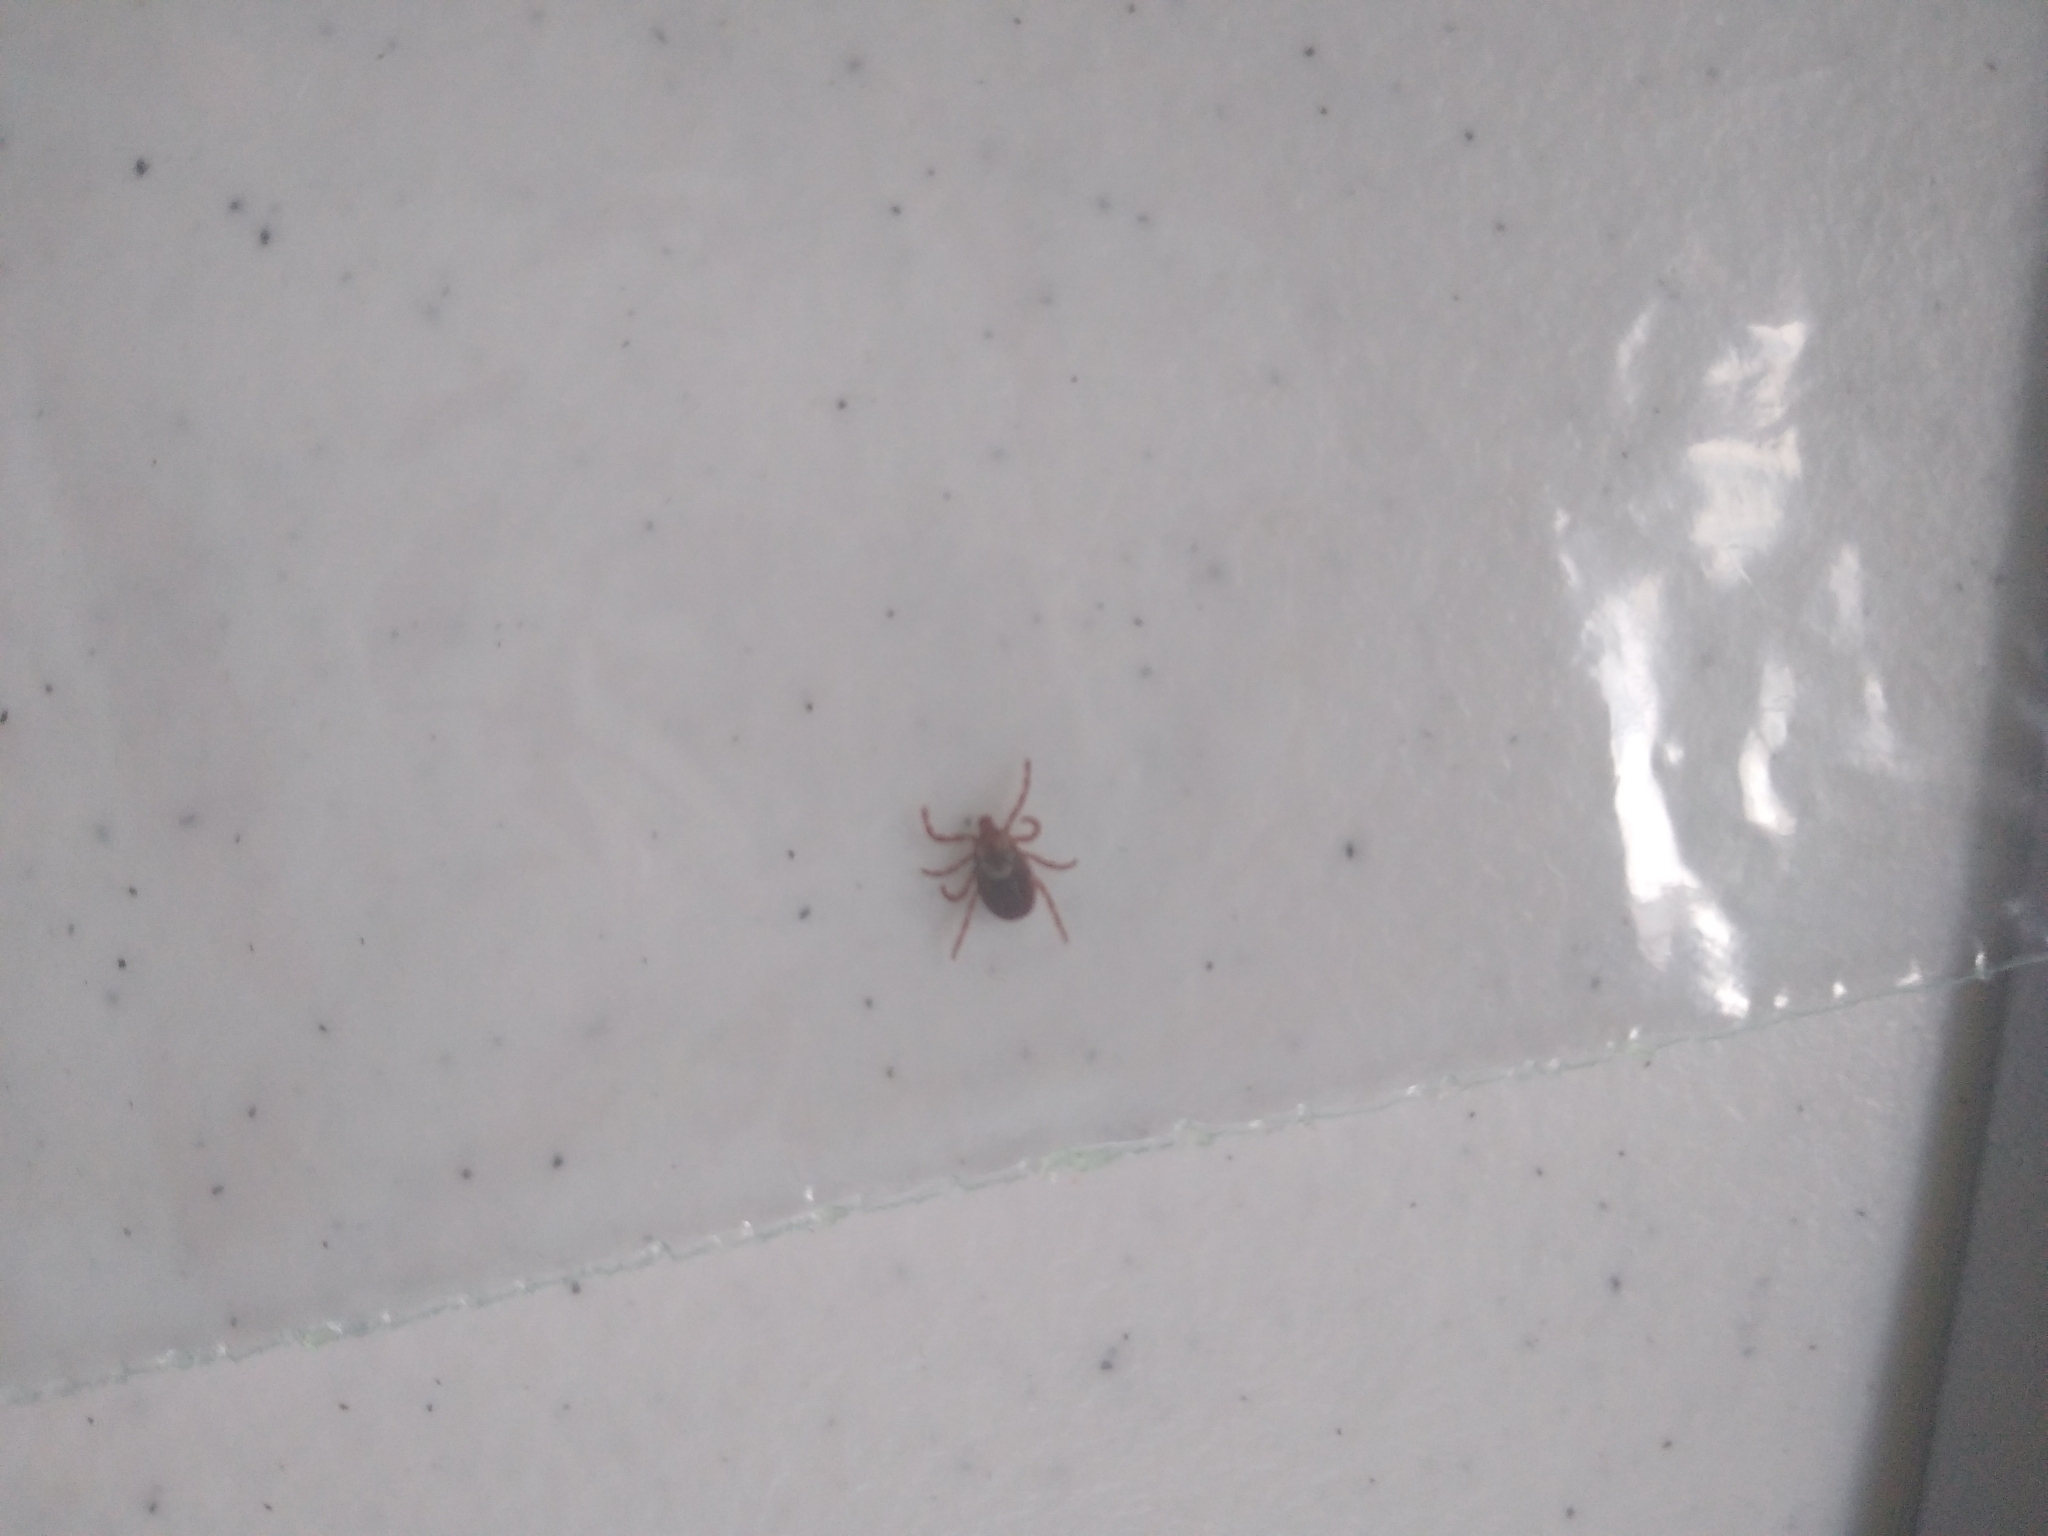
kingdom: Animalia
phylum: Arthropoda
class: Arachnida
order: Ixodida
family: Ixodidae
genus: Dermacentor
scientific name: Dermacentor variabilis
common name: American dog tick
